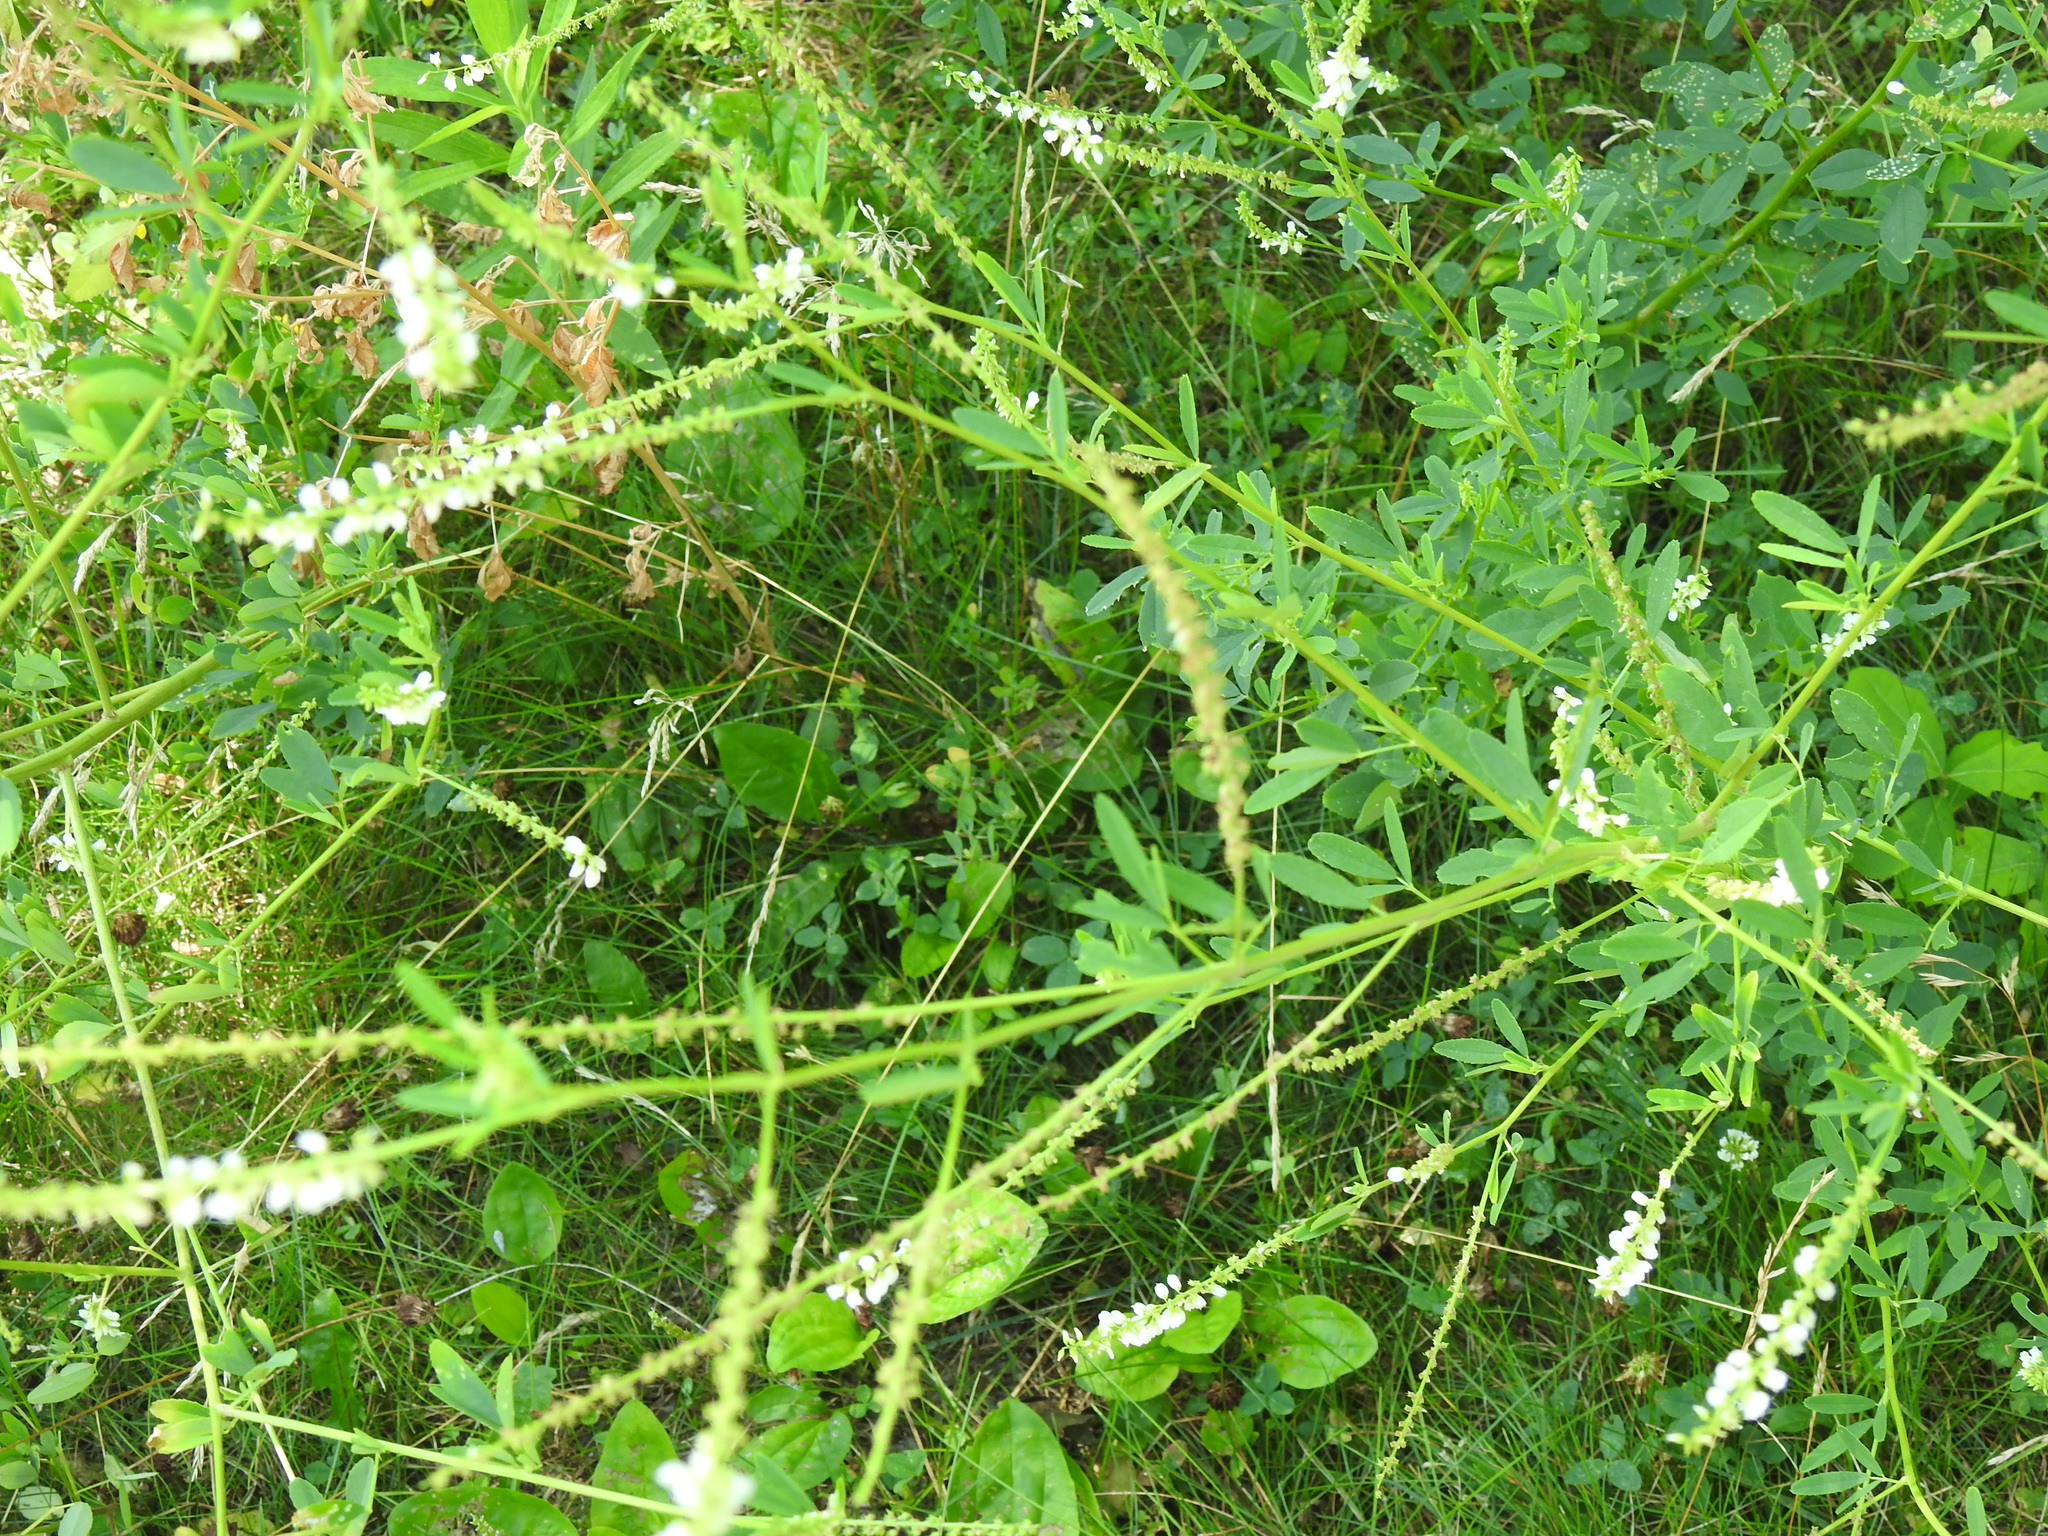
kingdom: Plantae
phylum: Tracheophyta
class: Magnoliopsida
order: Fabales
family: Fabaceae
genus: Melilotus
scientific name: Melilotus albus
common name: White melilot
